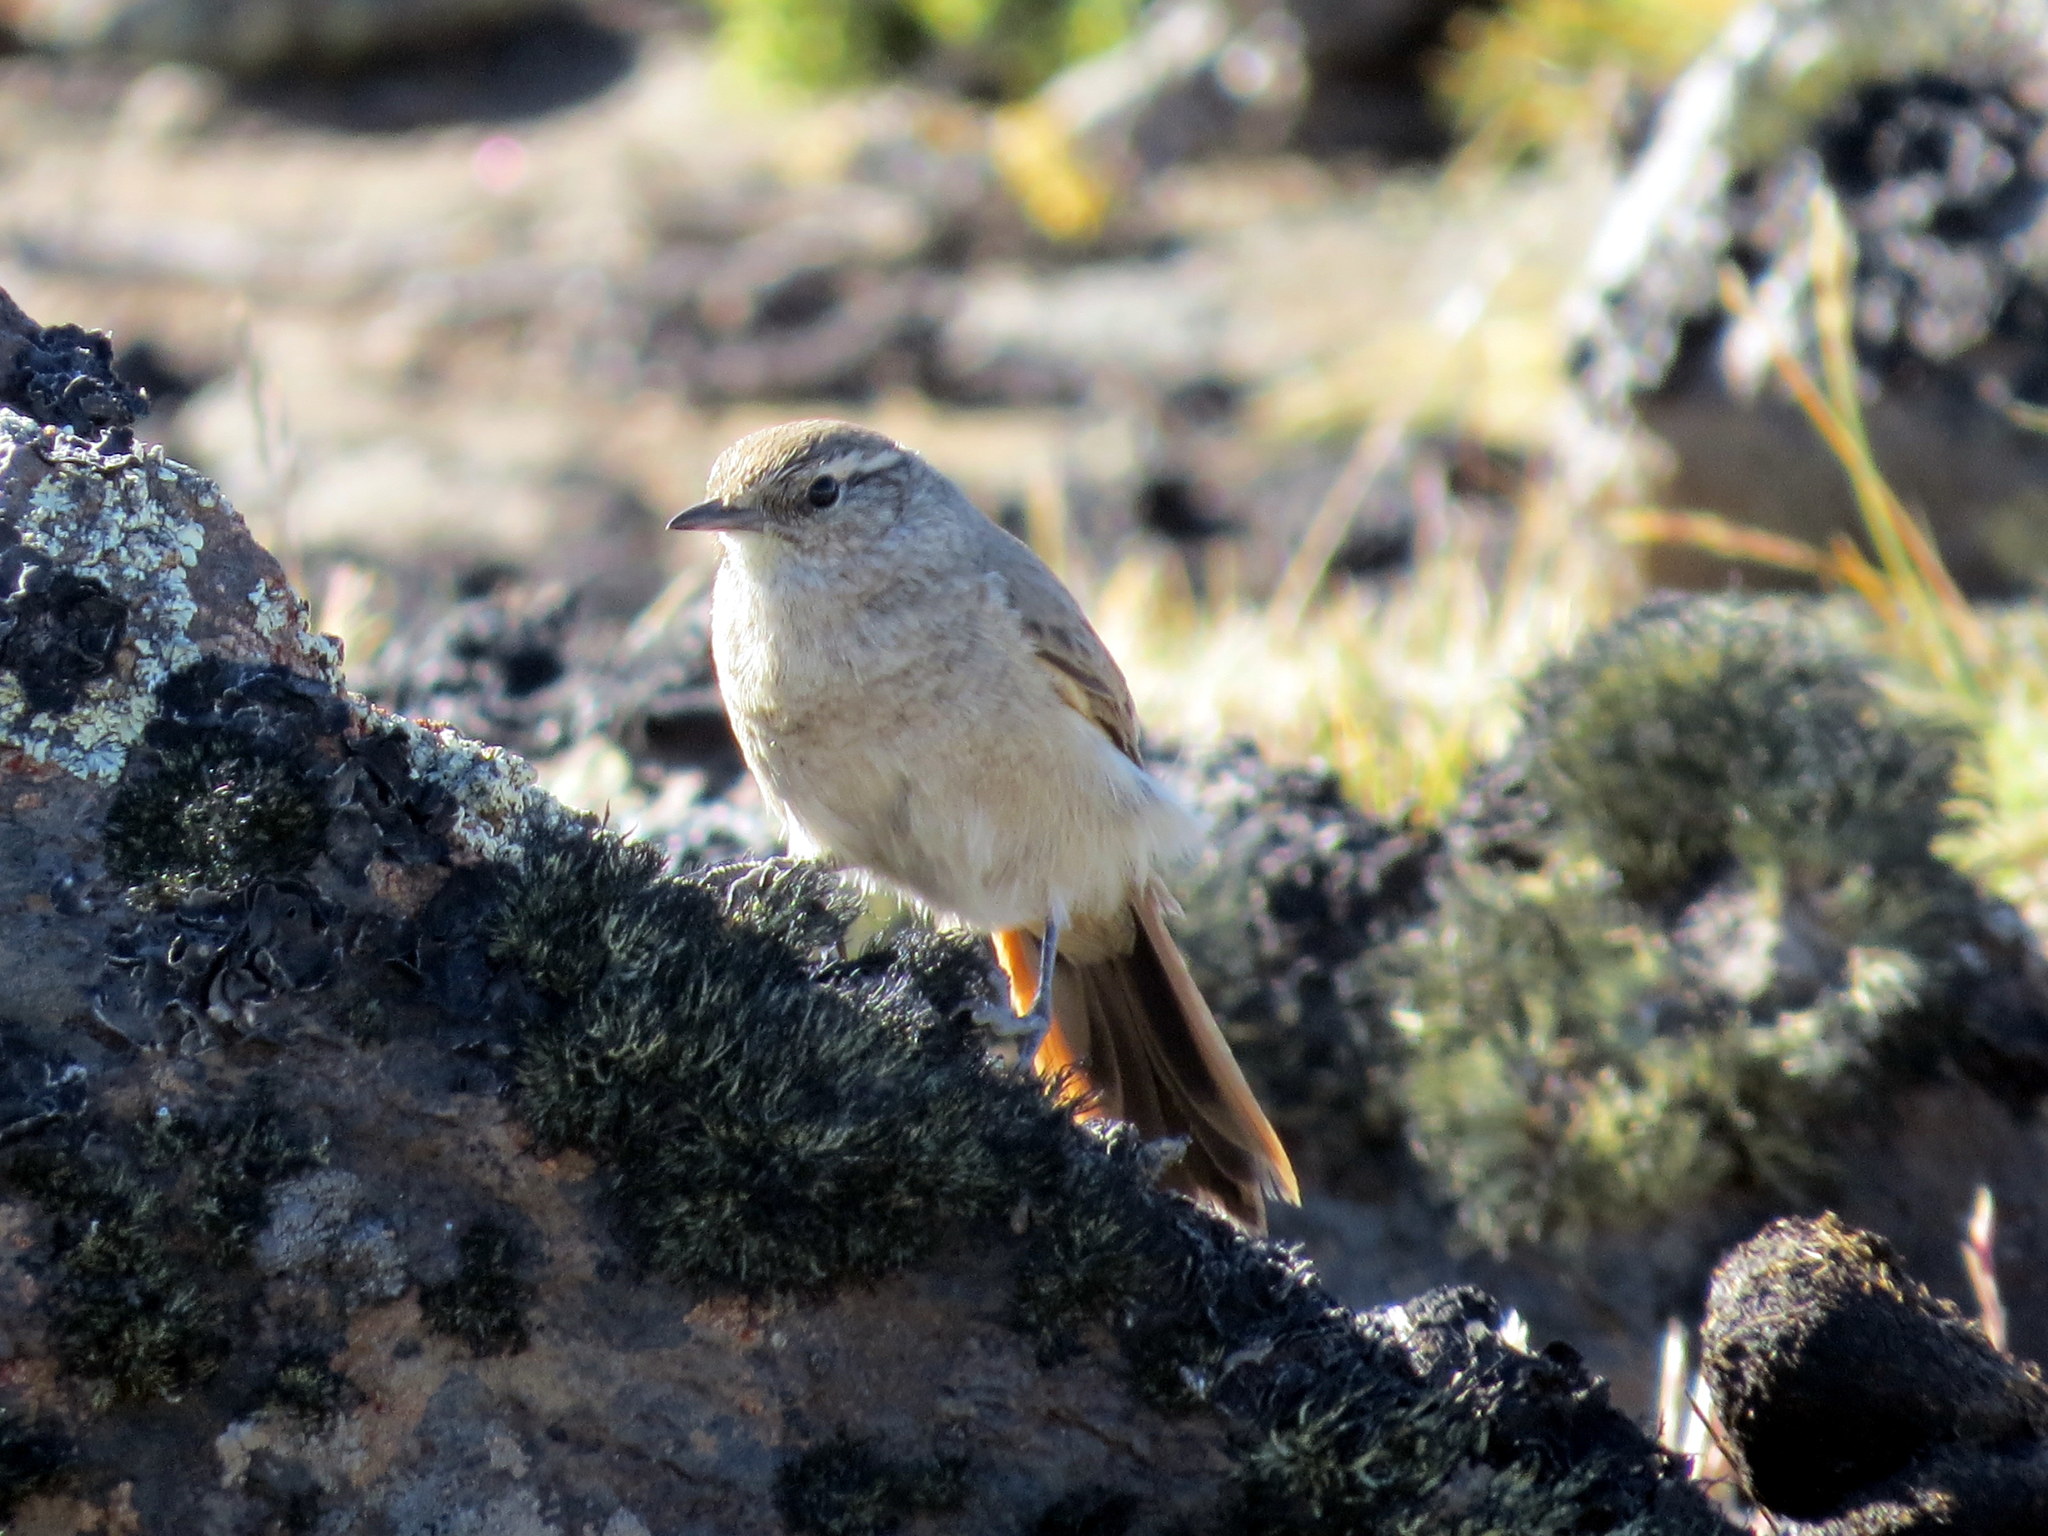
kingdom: Animalia
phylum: Chordata
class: Aves
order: Passeriformes
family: Furnariidae
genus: Asthenes
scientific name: Asthenes modesta
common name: Cordilleran canastero
